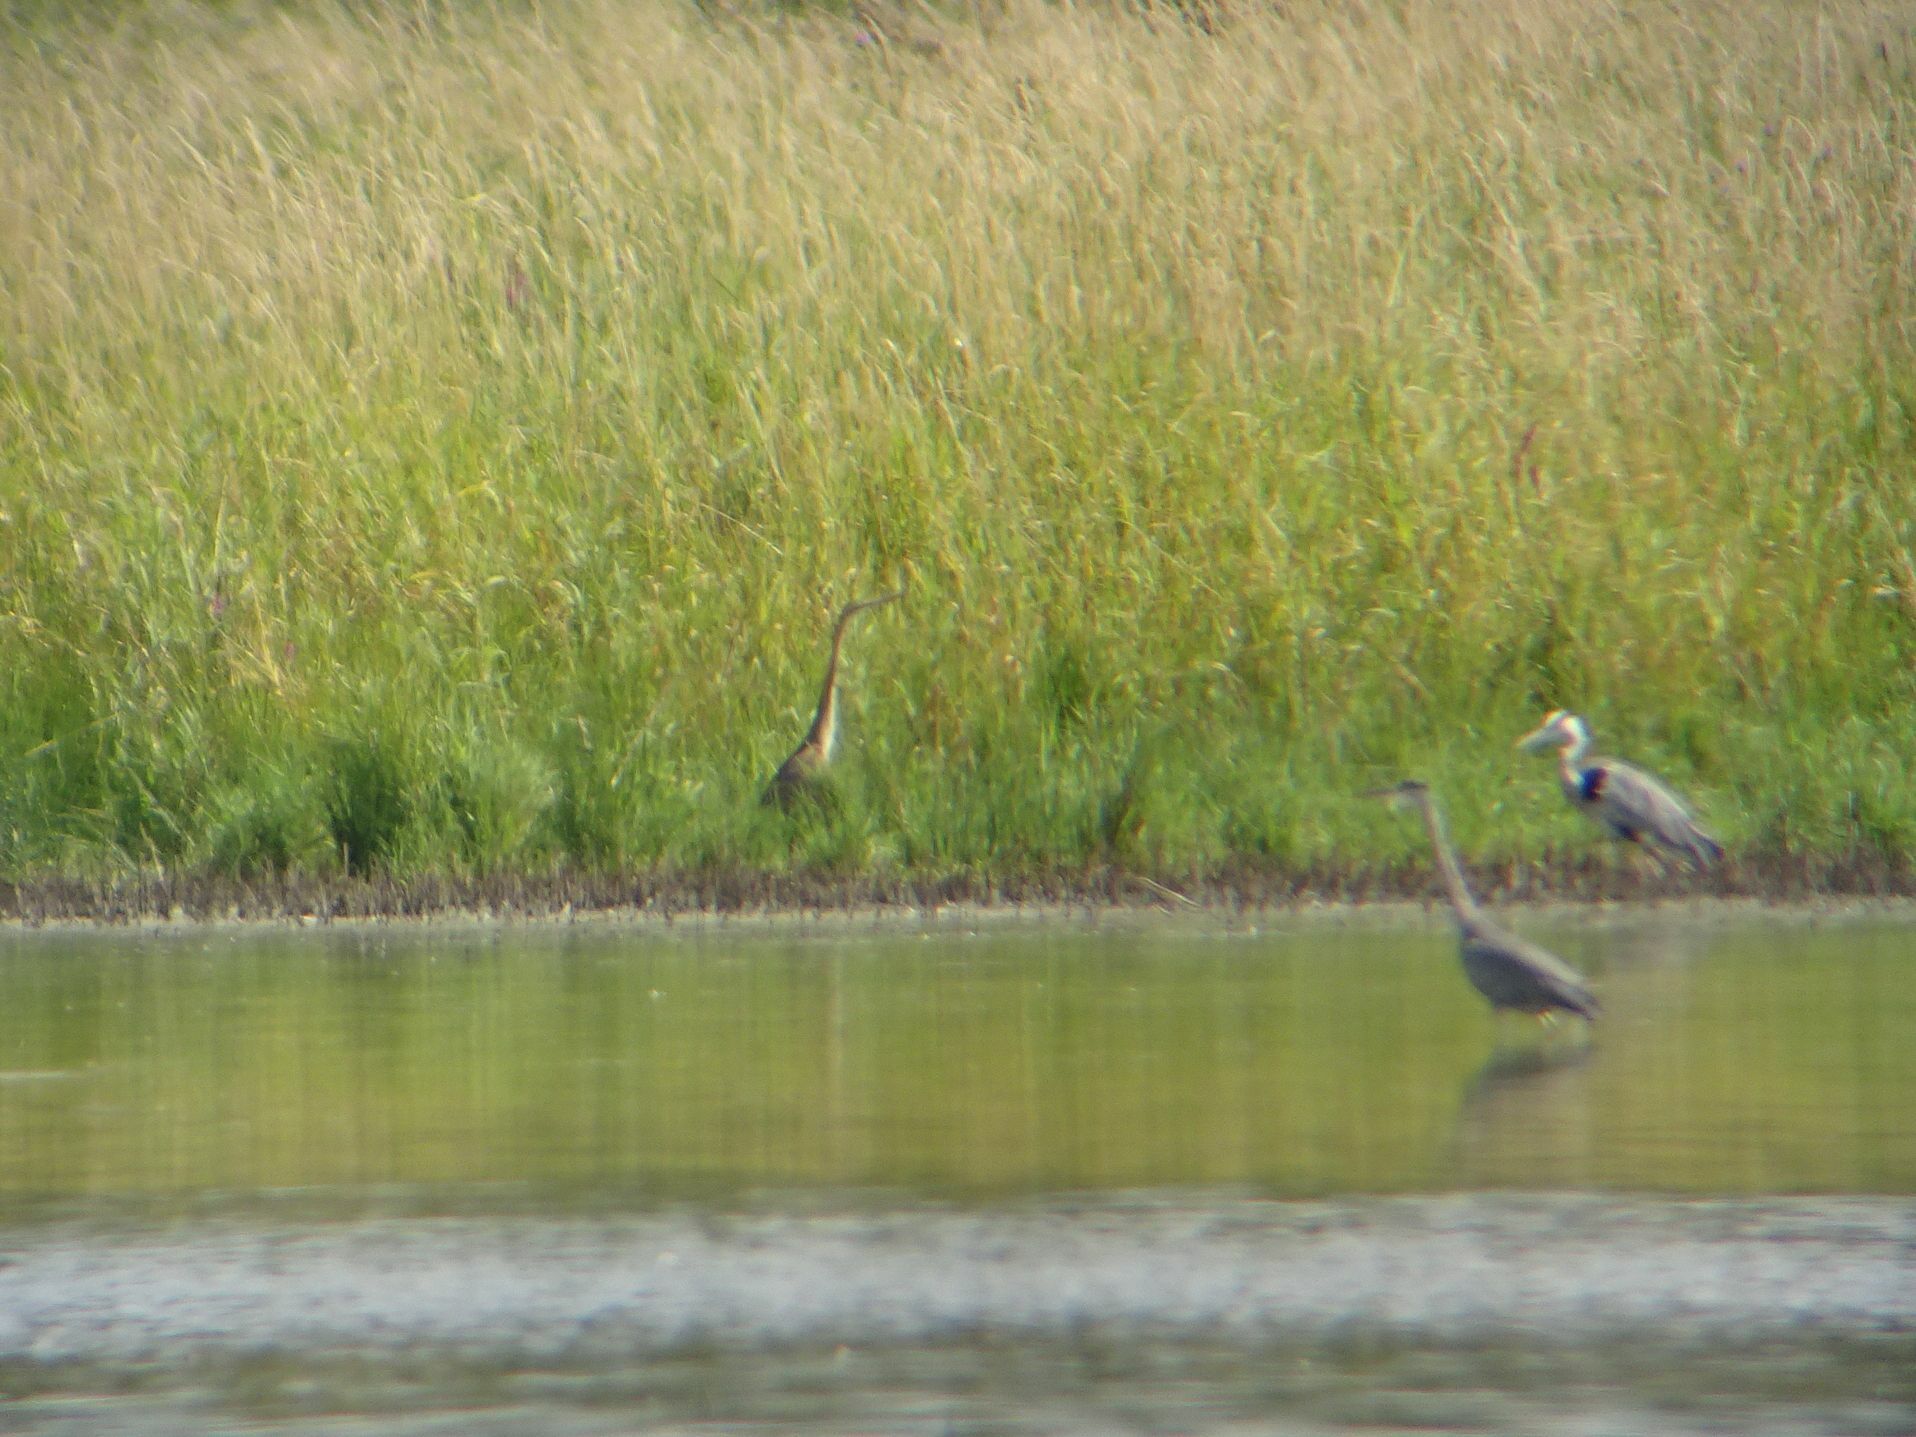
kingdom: Animalia
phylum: Chordata
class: Aves
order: Pelecaniformes
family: Ardeidae
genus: Ardea
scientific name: Ardea purpurea
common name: Purple heron
